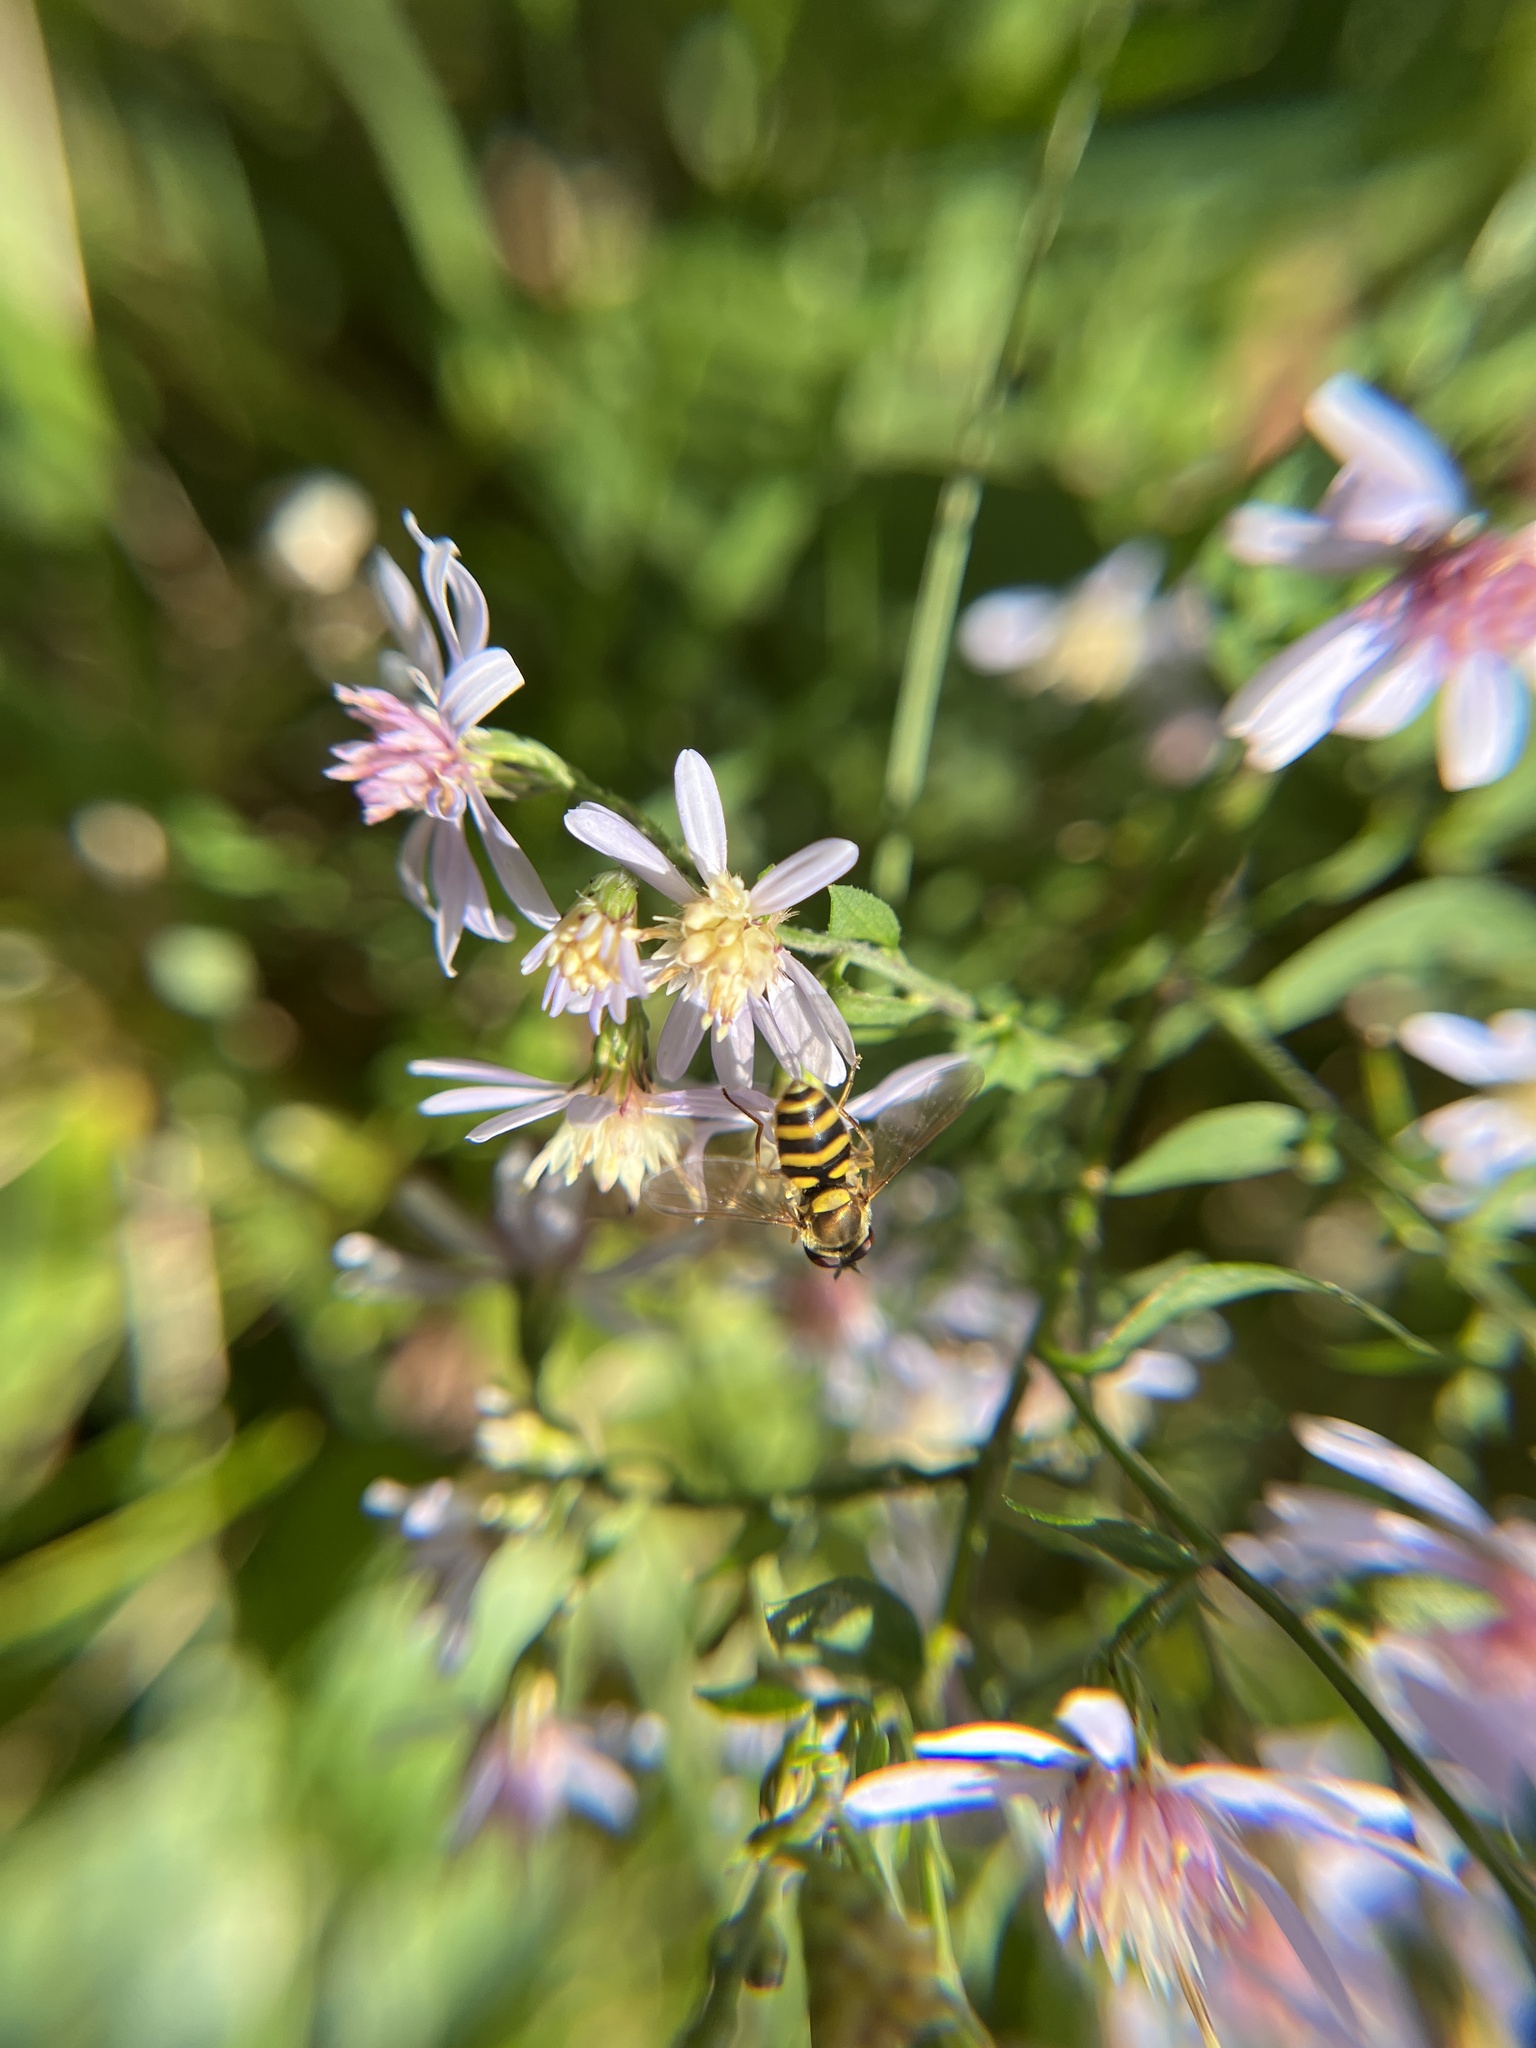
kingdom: Animalia
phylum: Arthropoda
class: Insecta
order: Diptera
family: Syrphidae
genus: Syrphus
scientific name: Syrphus rectus
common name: Yellow-legged flower fly
